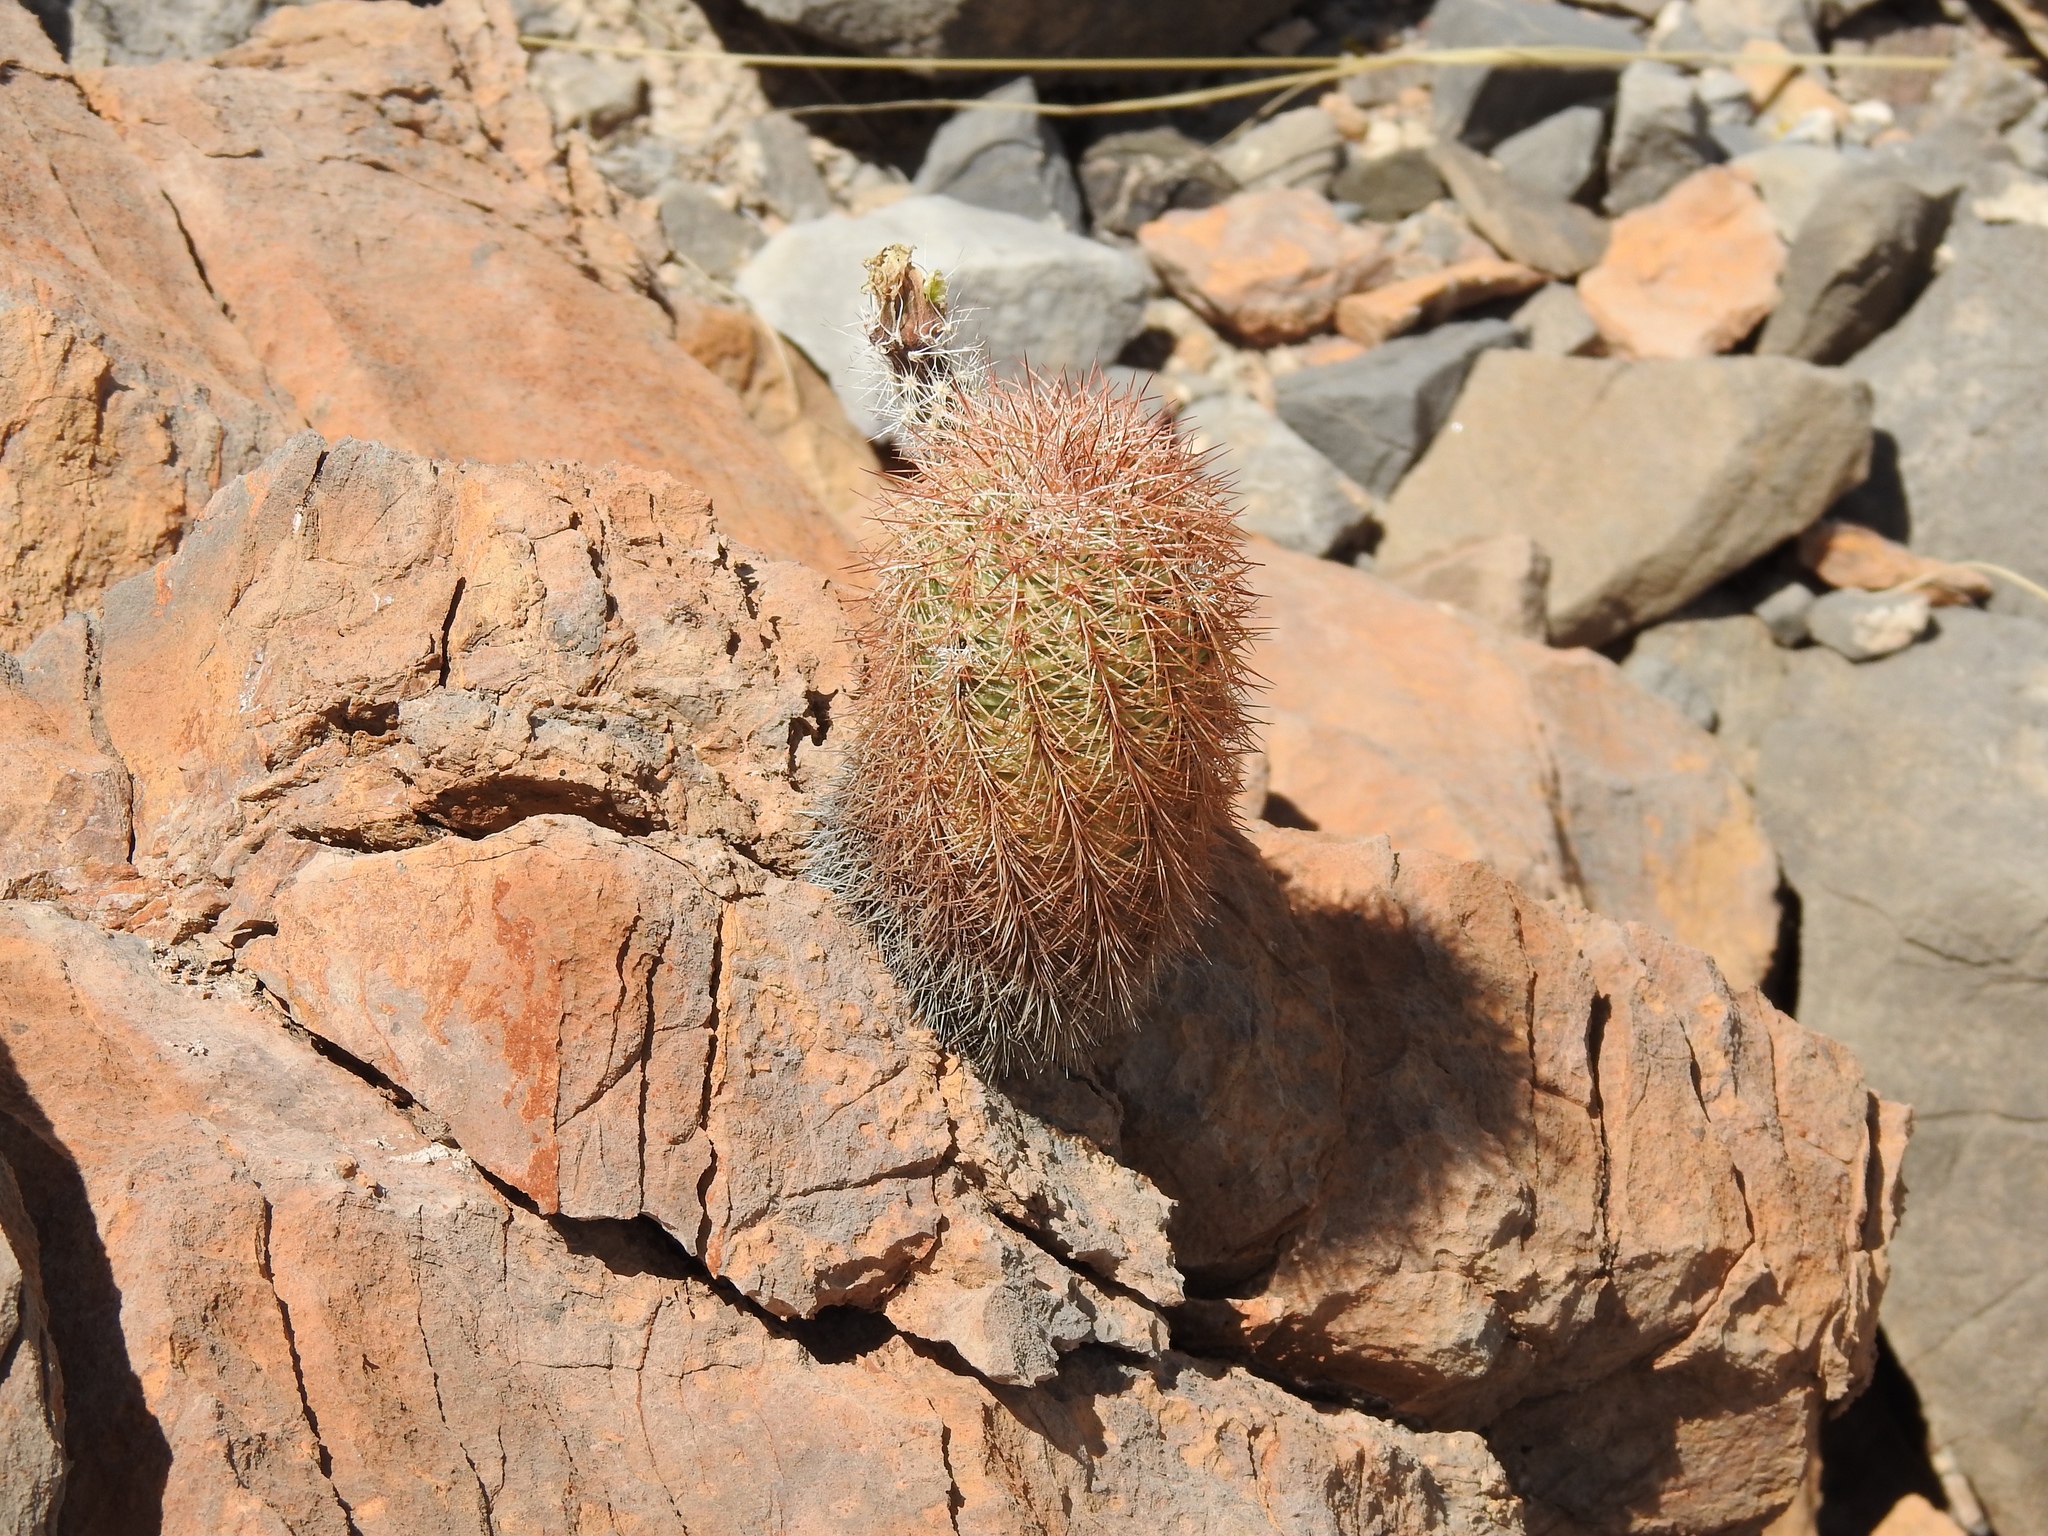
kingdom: Plantae
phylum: Tracheophyta
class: Magnoliopsida
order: Caryophyllales
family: Cactaceae
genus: Echinocereus
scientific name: Echinocereus dasyacanthus
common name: Spiny hedgehog cactus
